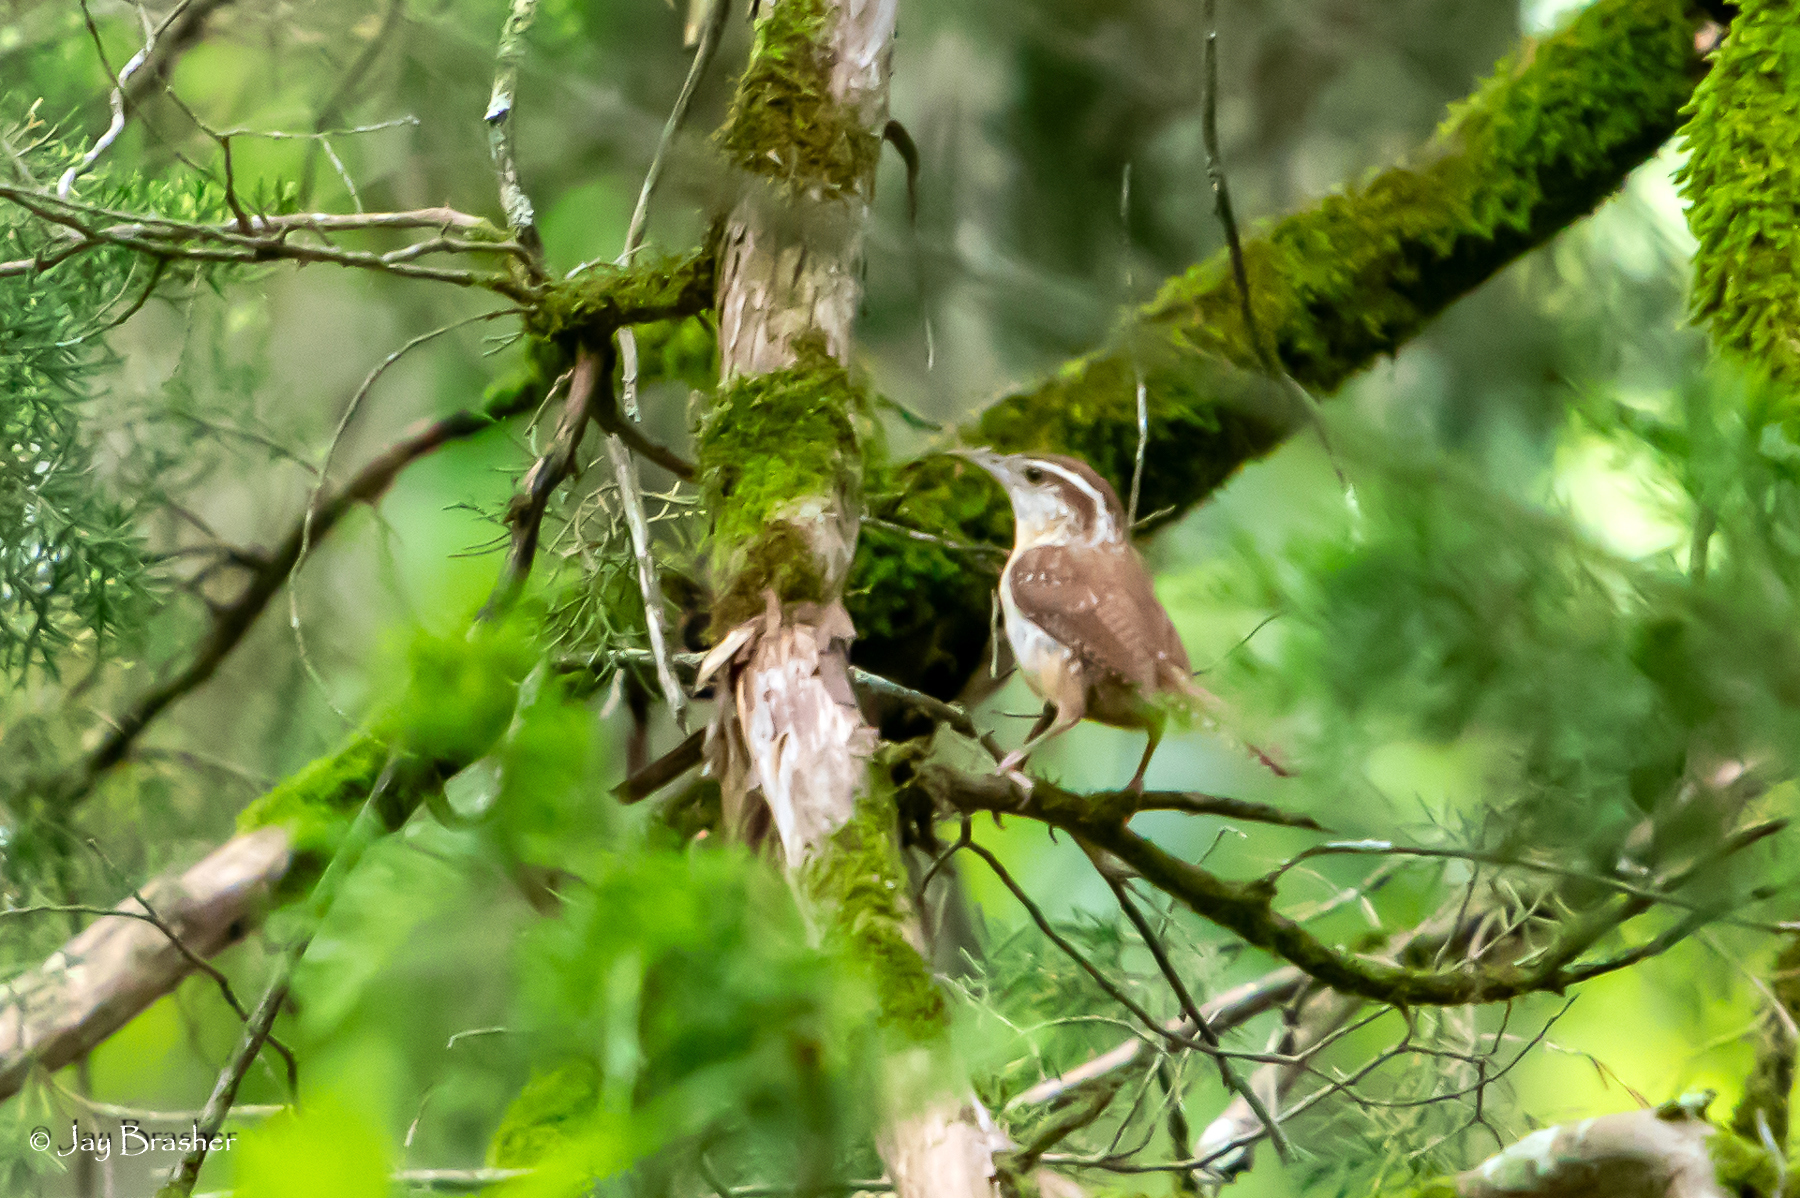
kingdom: Animalia
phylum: Chordata
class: Aves
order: Passeriformes
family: Troglodytidae
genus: Thryothorus
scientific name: Thryothorus ludovicianus
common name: Carolina wren
